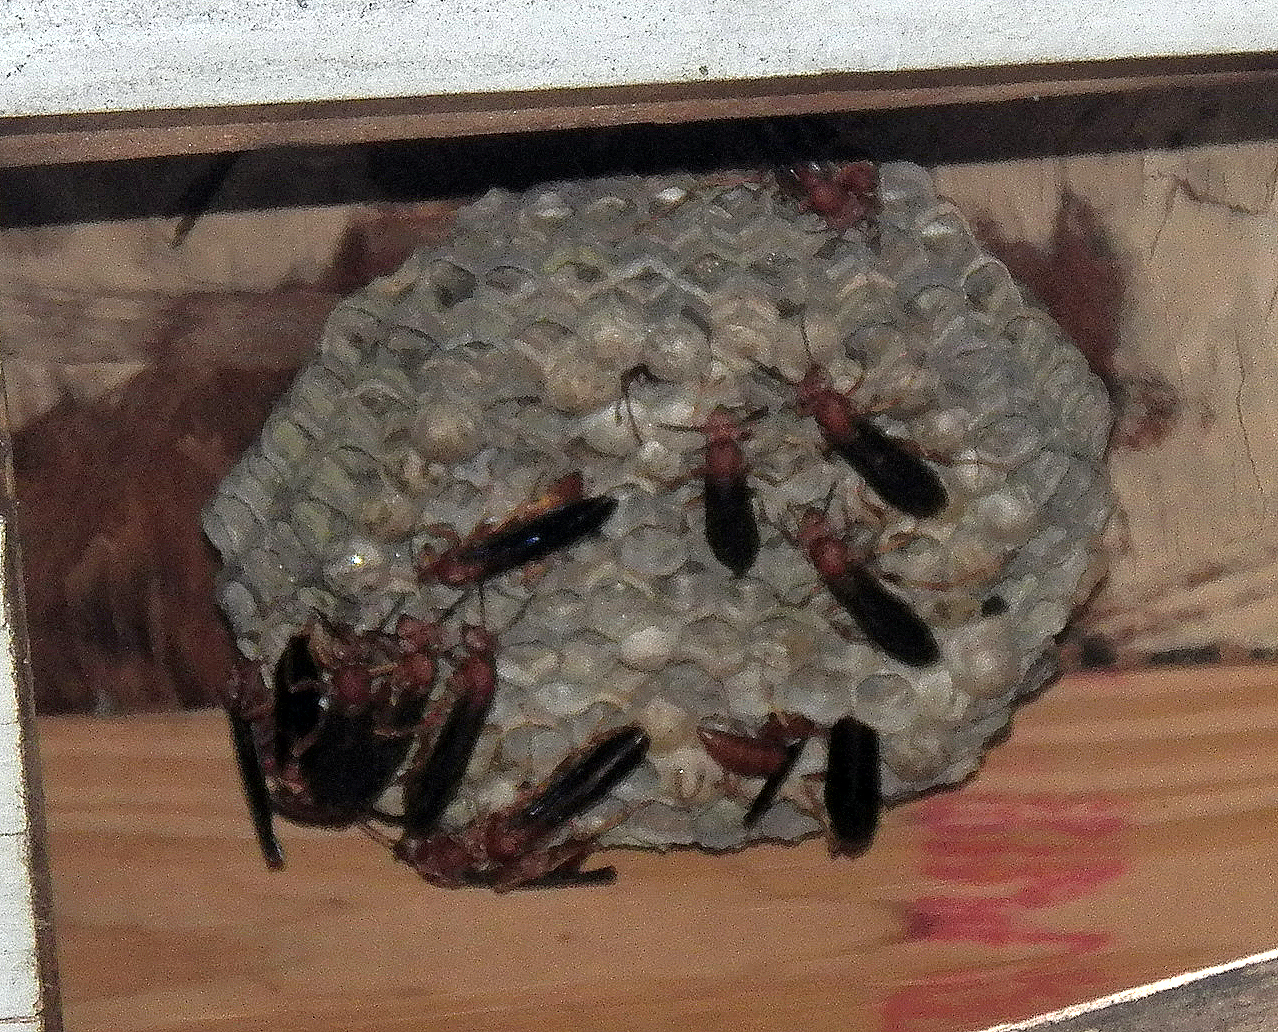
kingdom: Animalia
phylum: Arthropoda
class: Insecta
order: Hymenoptera
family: Eumenidae
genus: Polistes
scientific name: Polistes
